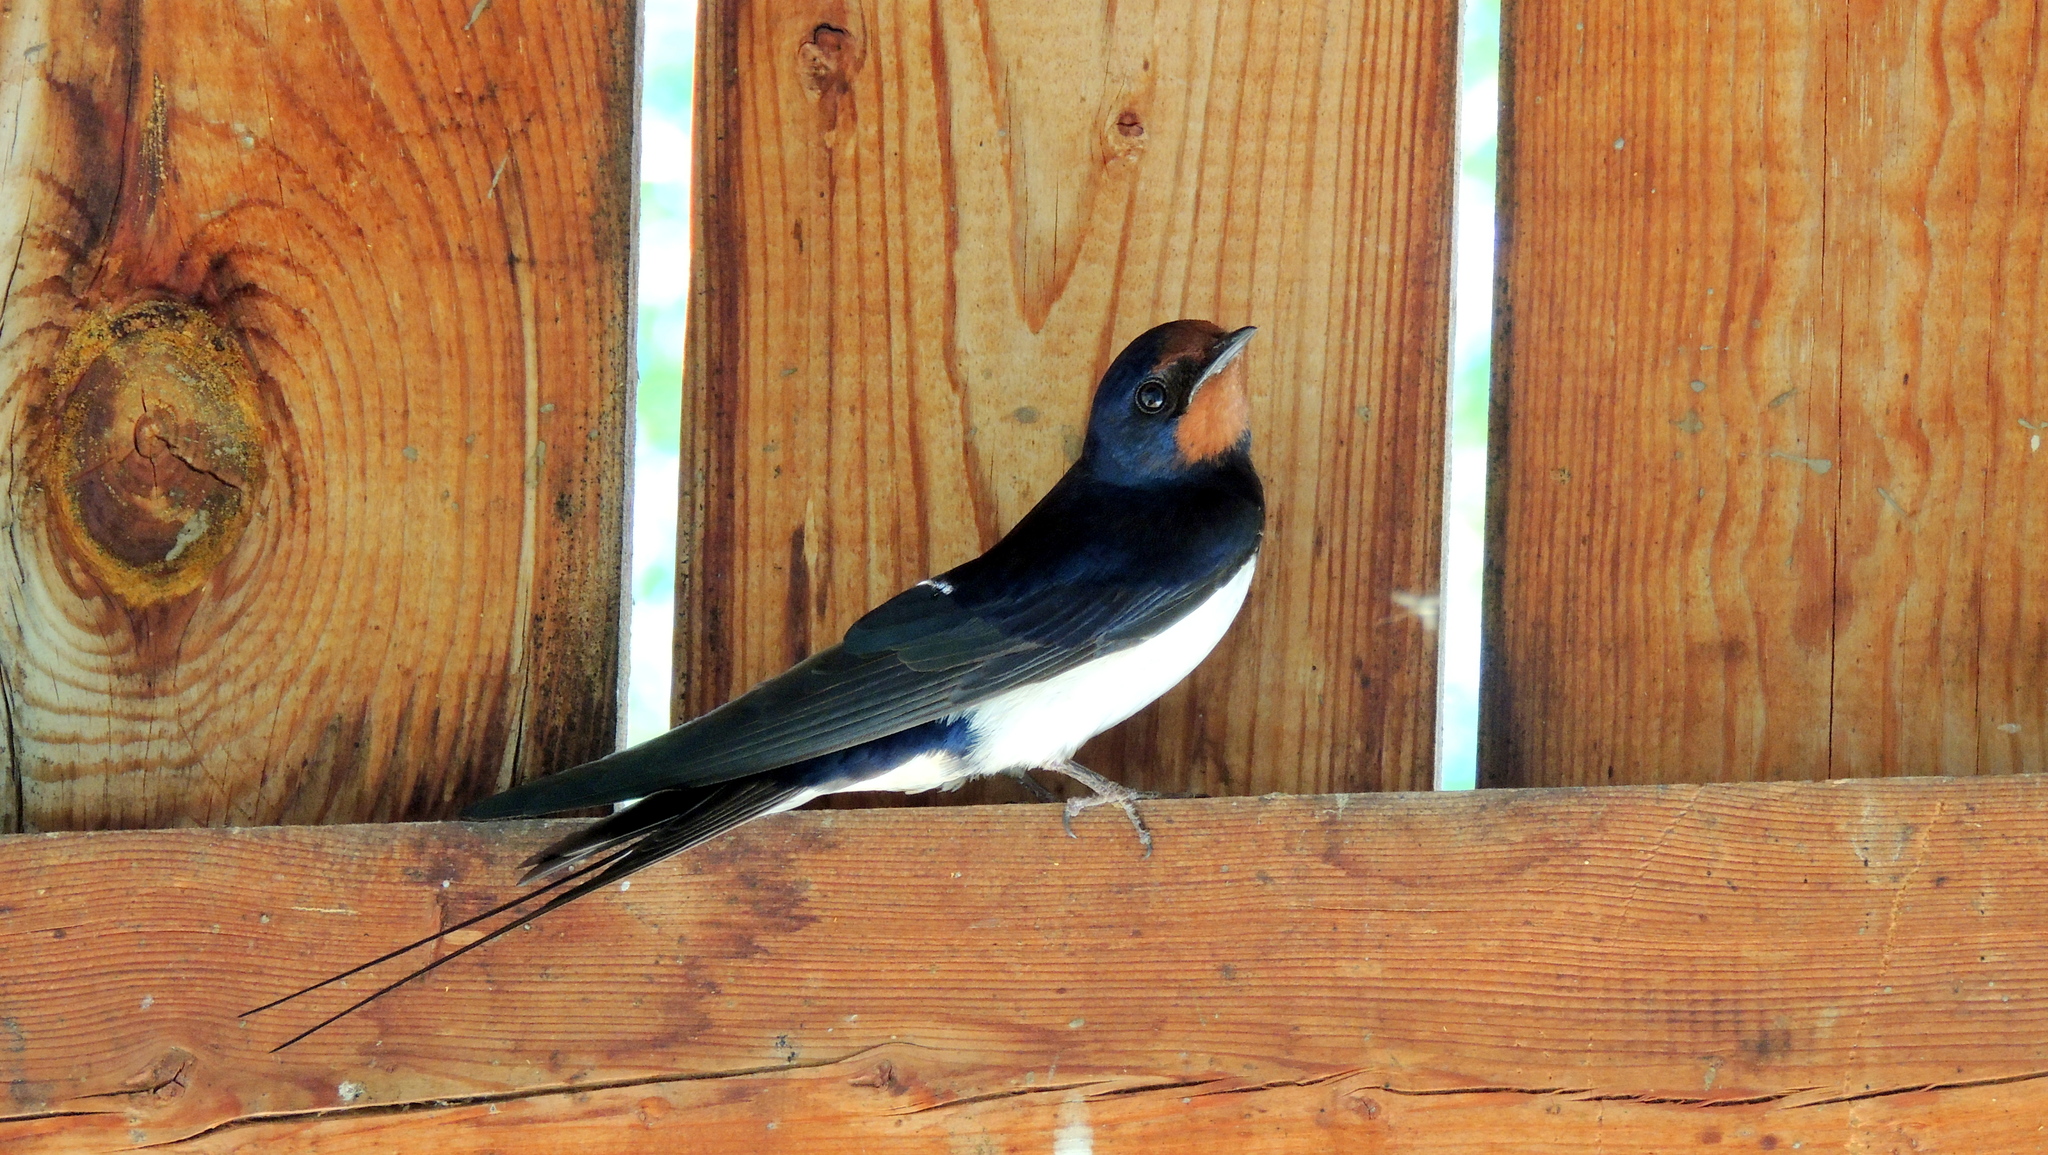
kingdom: Animalia
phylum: Chordata
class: Aves
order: Passeriformes
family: Hirundinidae
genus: Hirundo
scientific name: Hirundo rustica
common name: Barn swallow
